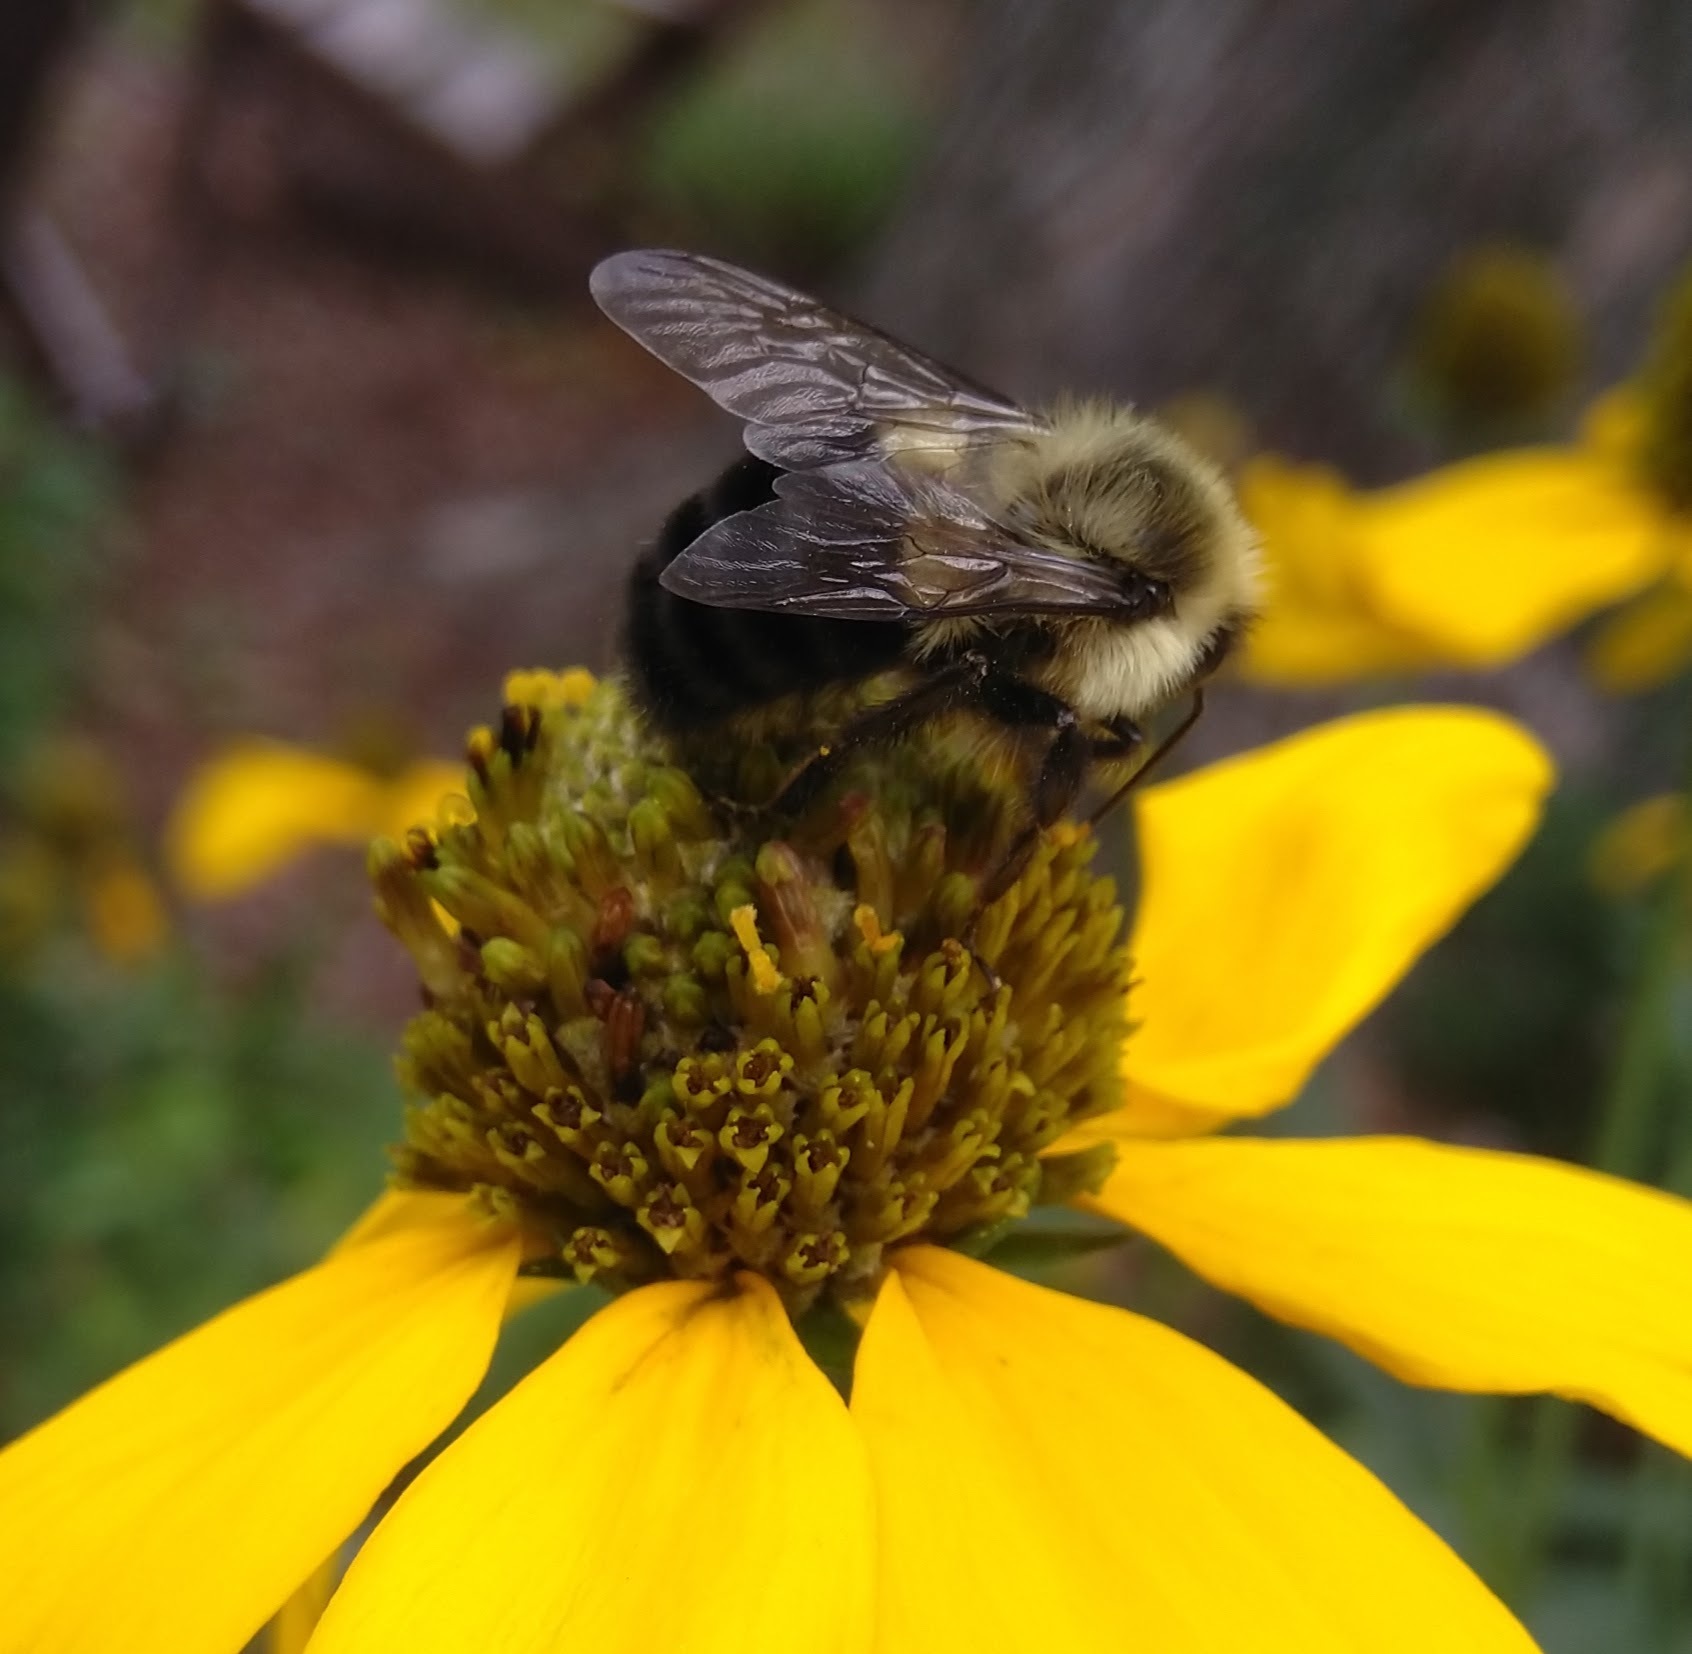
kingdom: Animalia
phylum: Arthropoda
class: Insecta
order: Hymenoptera
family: Apidae
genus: Bombus
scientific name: Bombus impatiens
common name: Common eastern bumble bee
